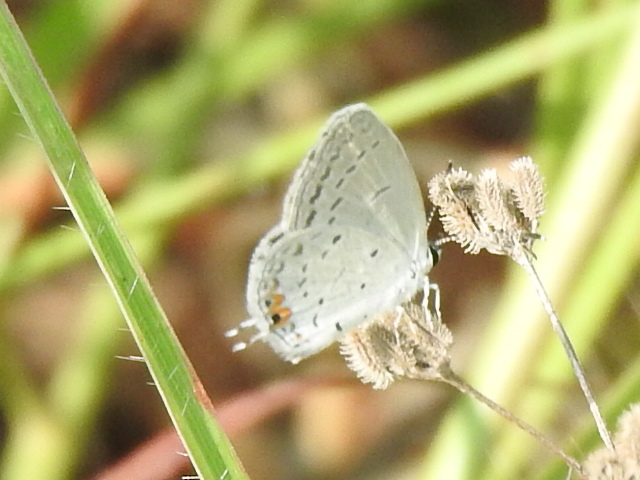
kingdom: Animalia
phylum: Arthropoda
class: Insecta
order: Lepidoptera
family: Lycaenidae
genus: Elkalyce
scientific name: Elkalyce comyntas
